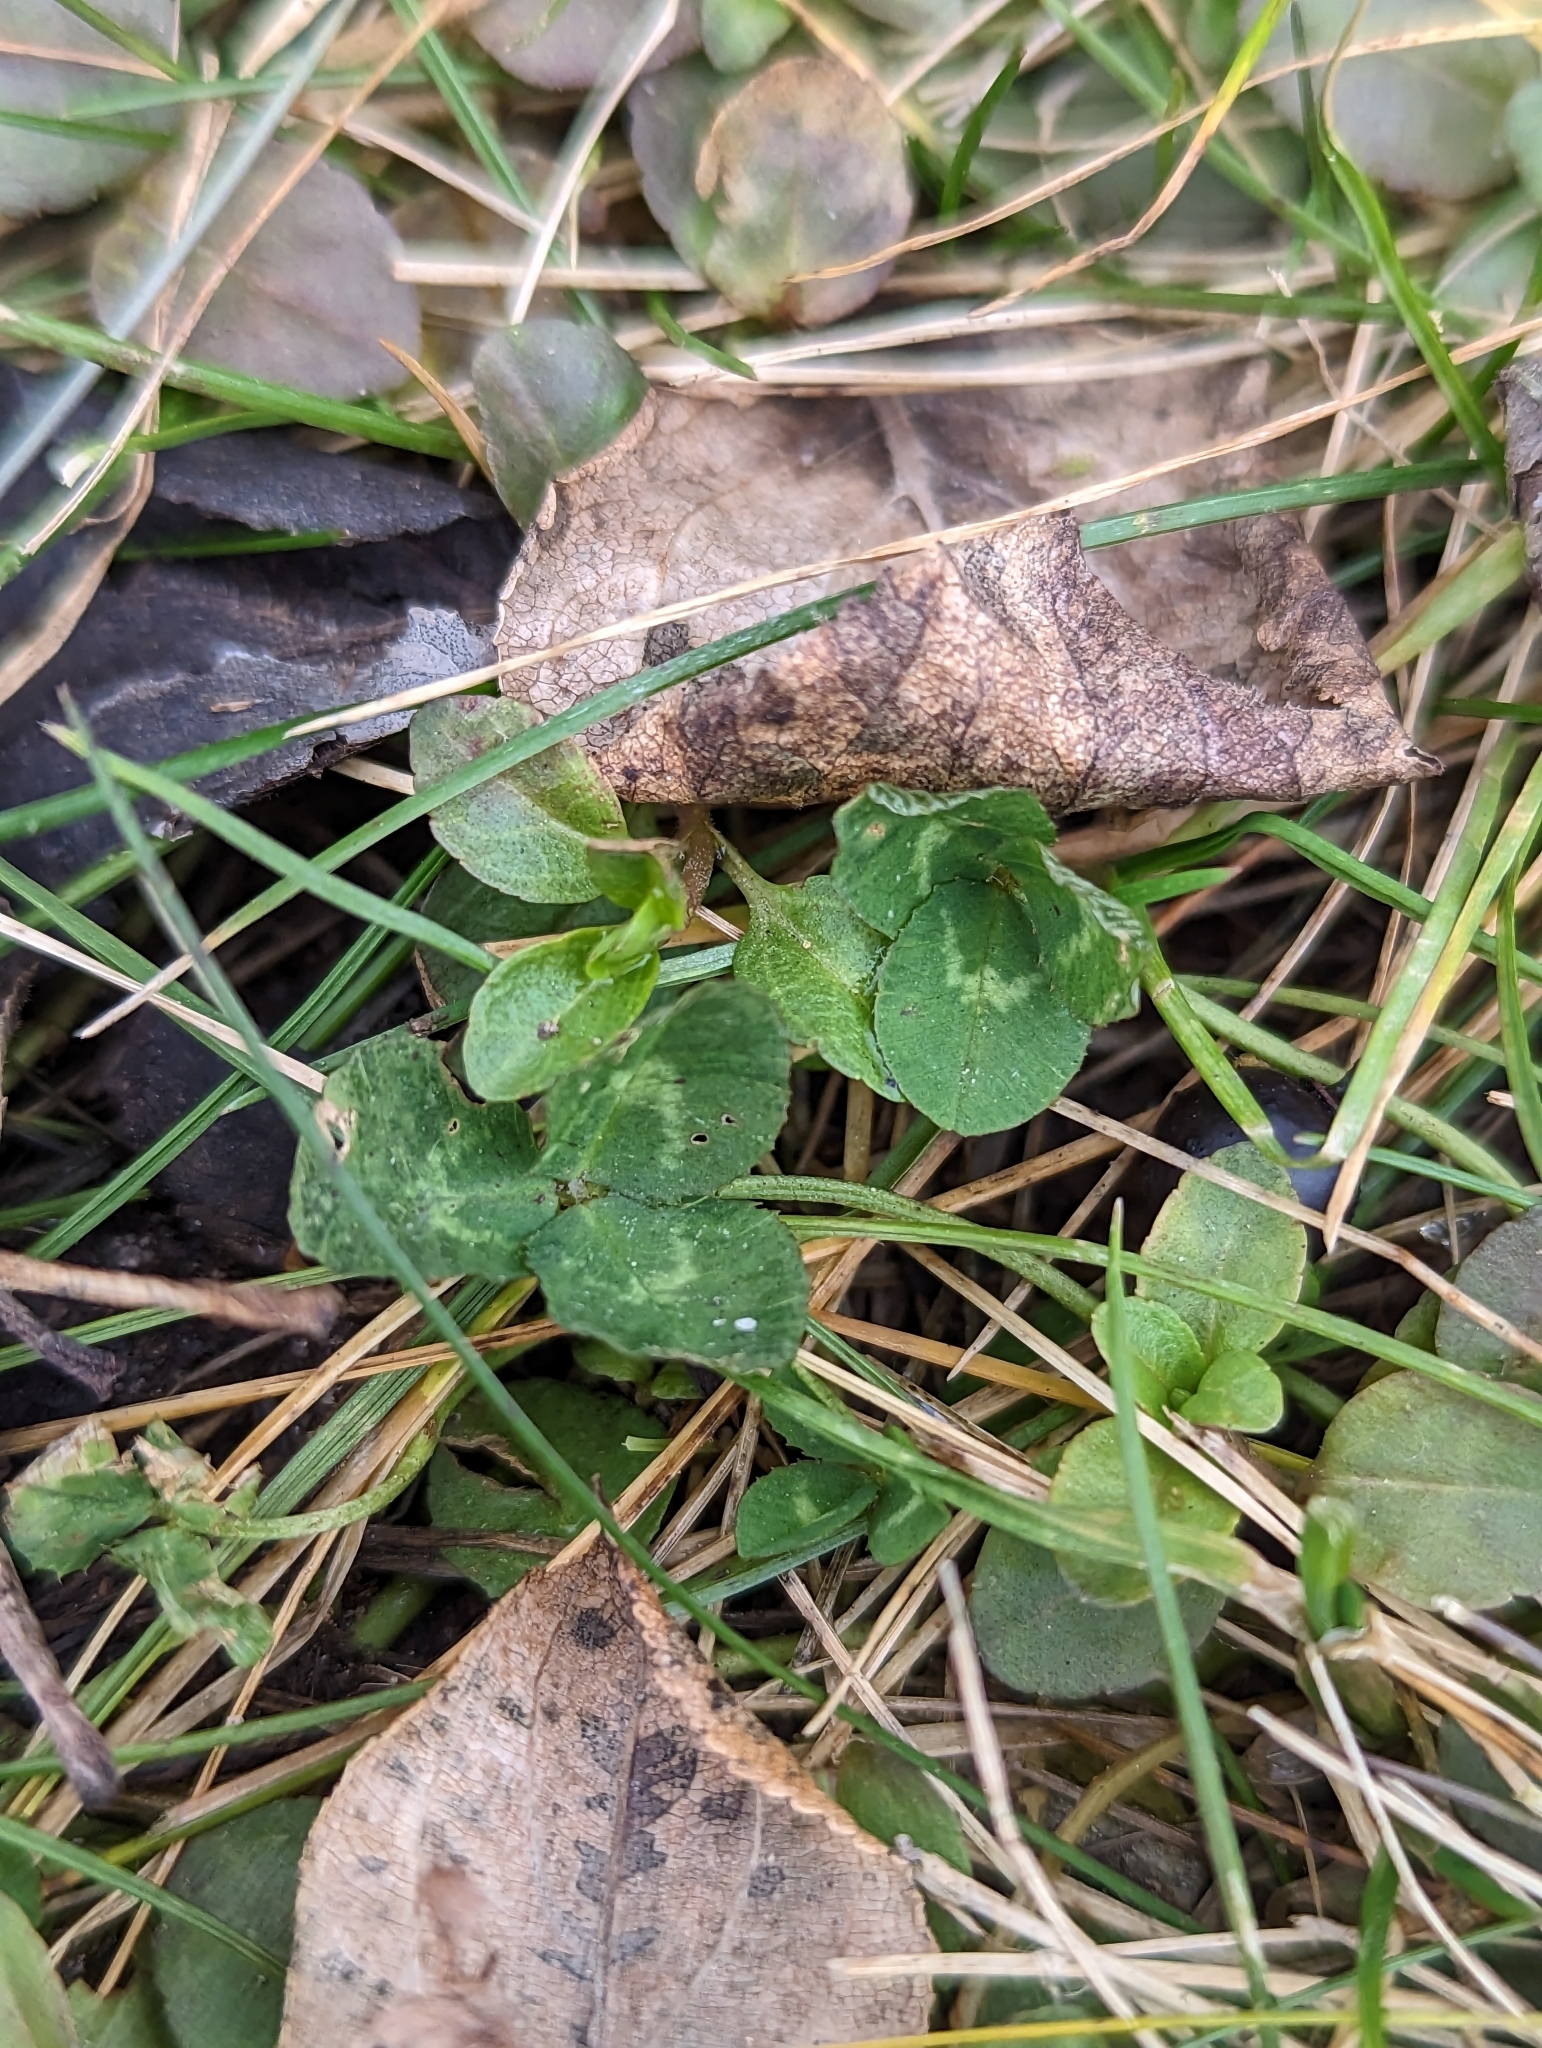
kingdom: Plantae
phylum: Tracheophyta
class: Magnoliopsida
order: Fabales
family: Fabaceae
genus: Trifolium
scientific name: Trifolium repens
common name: White clover
